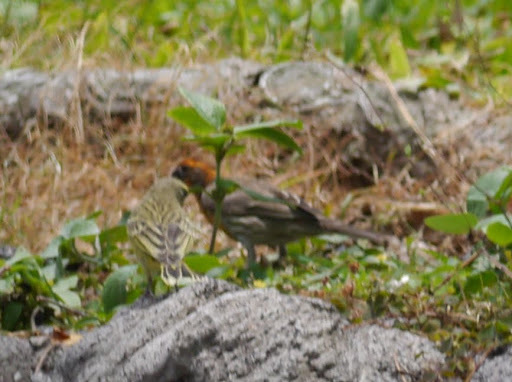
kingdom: Animalia
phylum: Chordata
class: Aves
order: Passeriformes
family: Fringillidae
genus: Haemorhous
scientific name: Haemorhous mexicanus
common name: House finch
